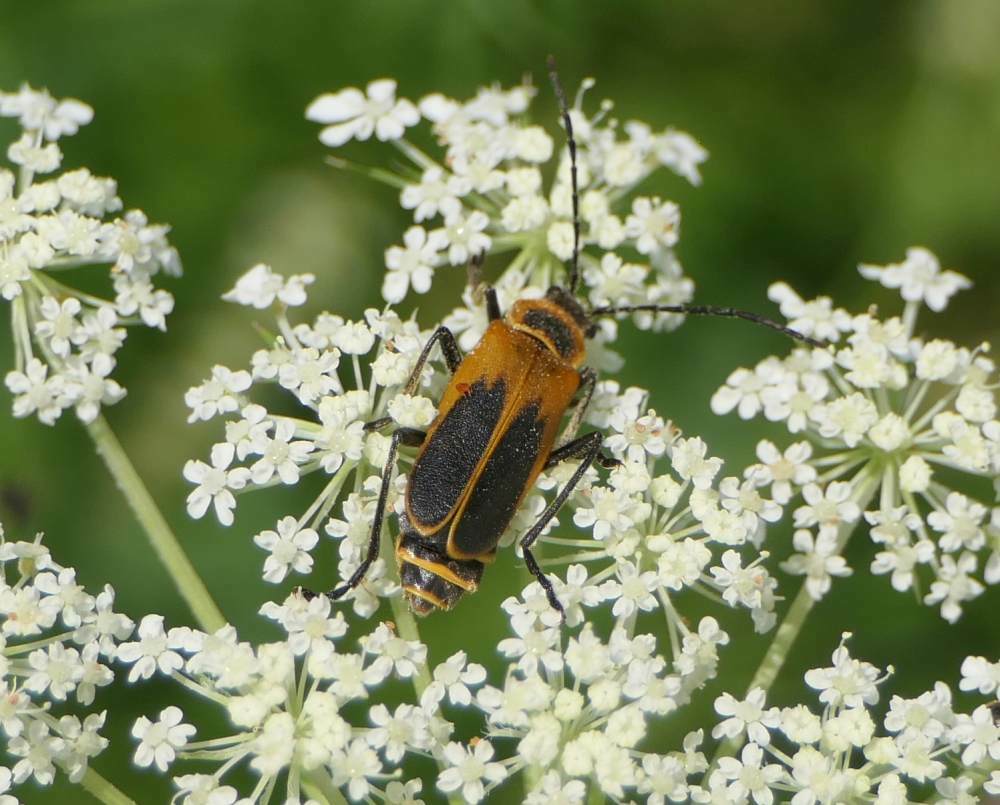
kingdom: Animalia
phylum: Arthropoda
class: Insecta
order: Coleoptera
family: Cantharidae
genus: Chauliognathus
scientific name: Chauliognathus pensylvanicus
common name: Goldenrod soldier beetle
